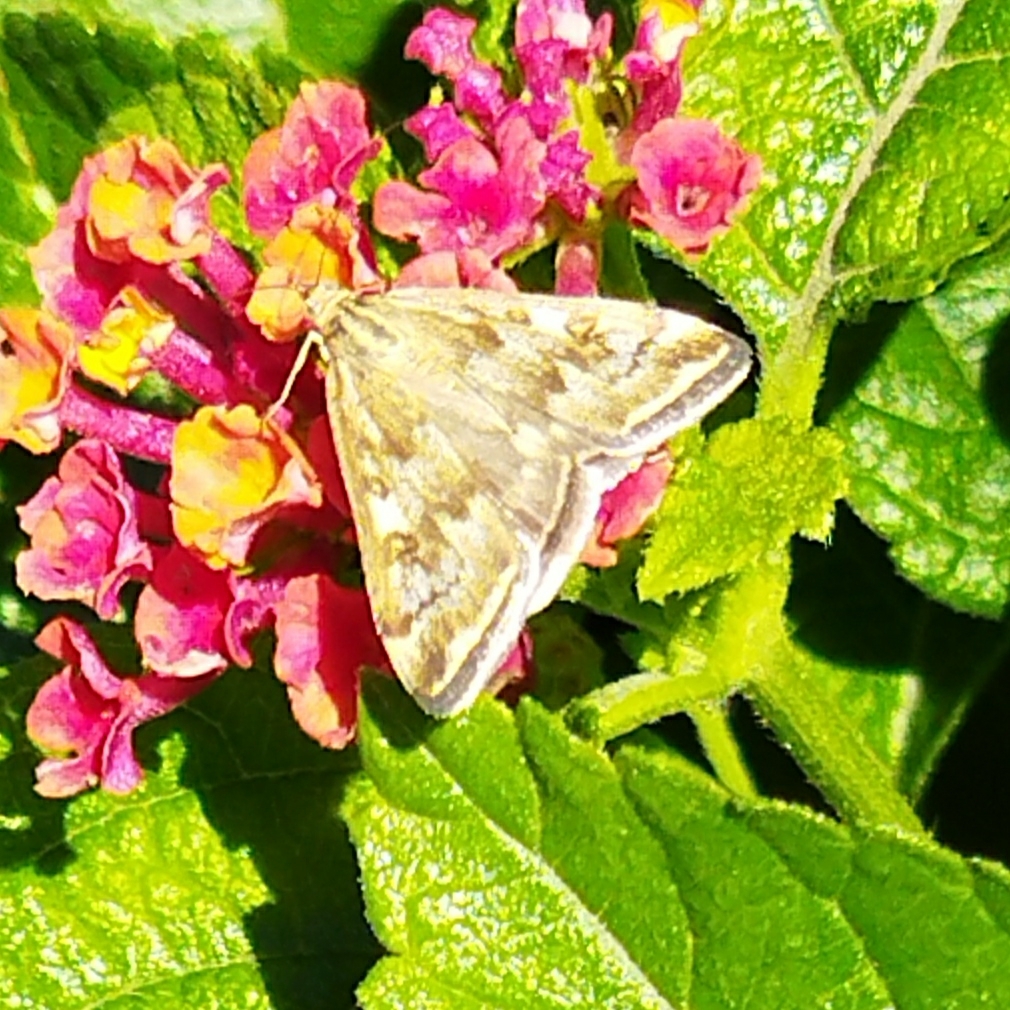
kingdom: Animalia
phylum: Arthropoda
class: Insecta
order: Lepidoptera
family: Crambidae
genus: Loxostege
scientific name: Loxostege sticticalis
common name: Crambid moth
